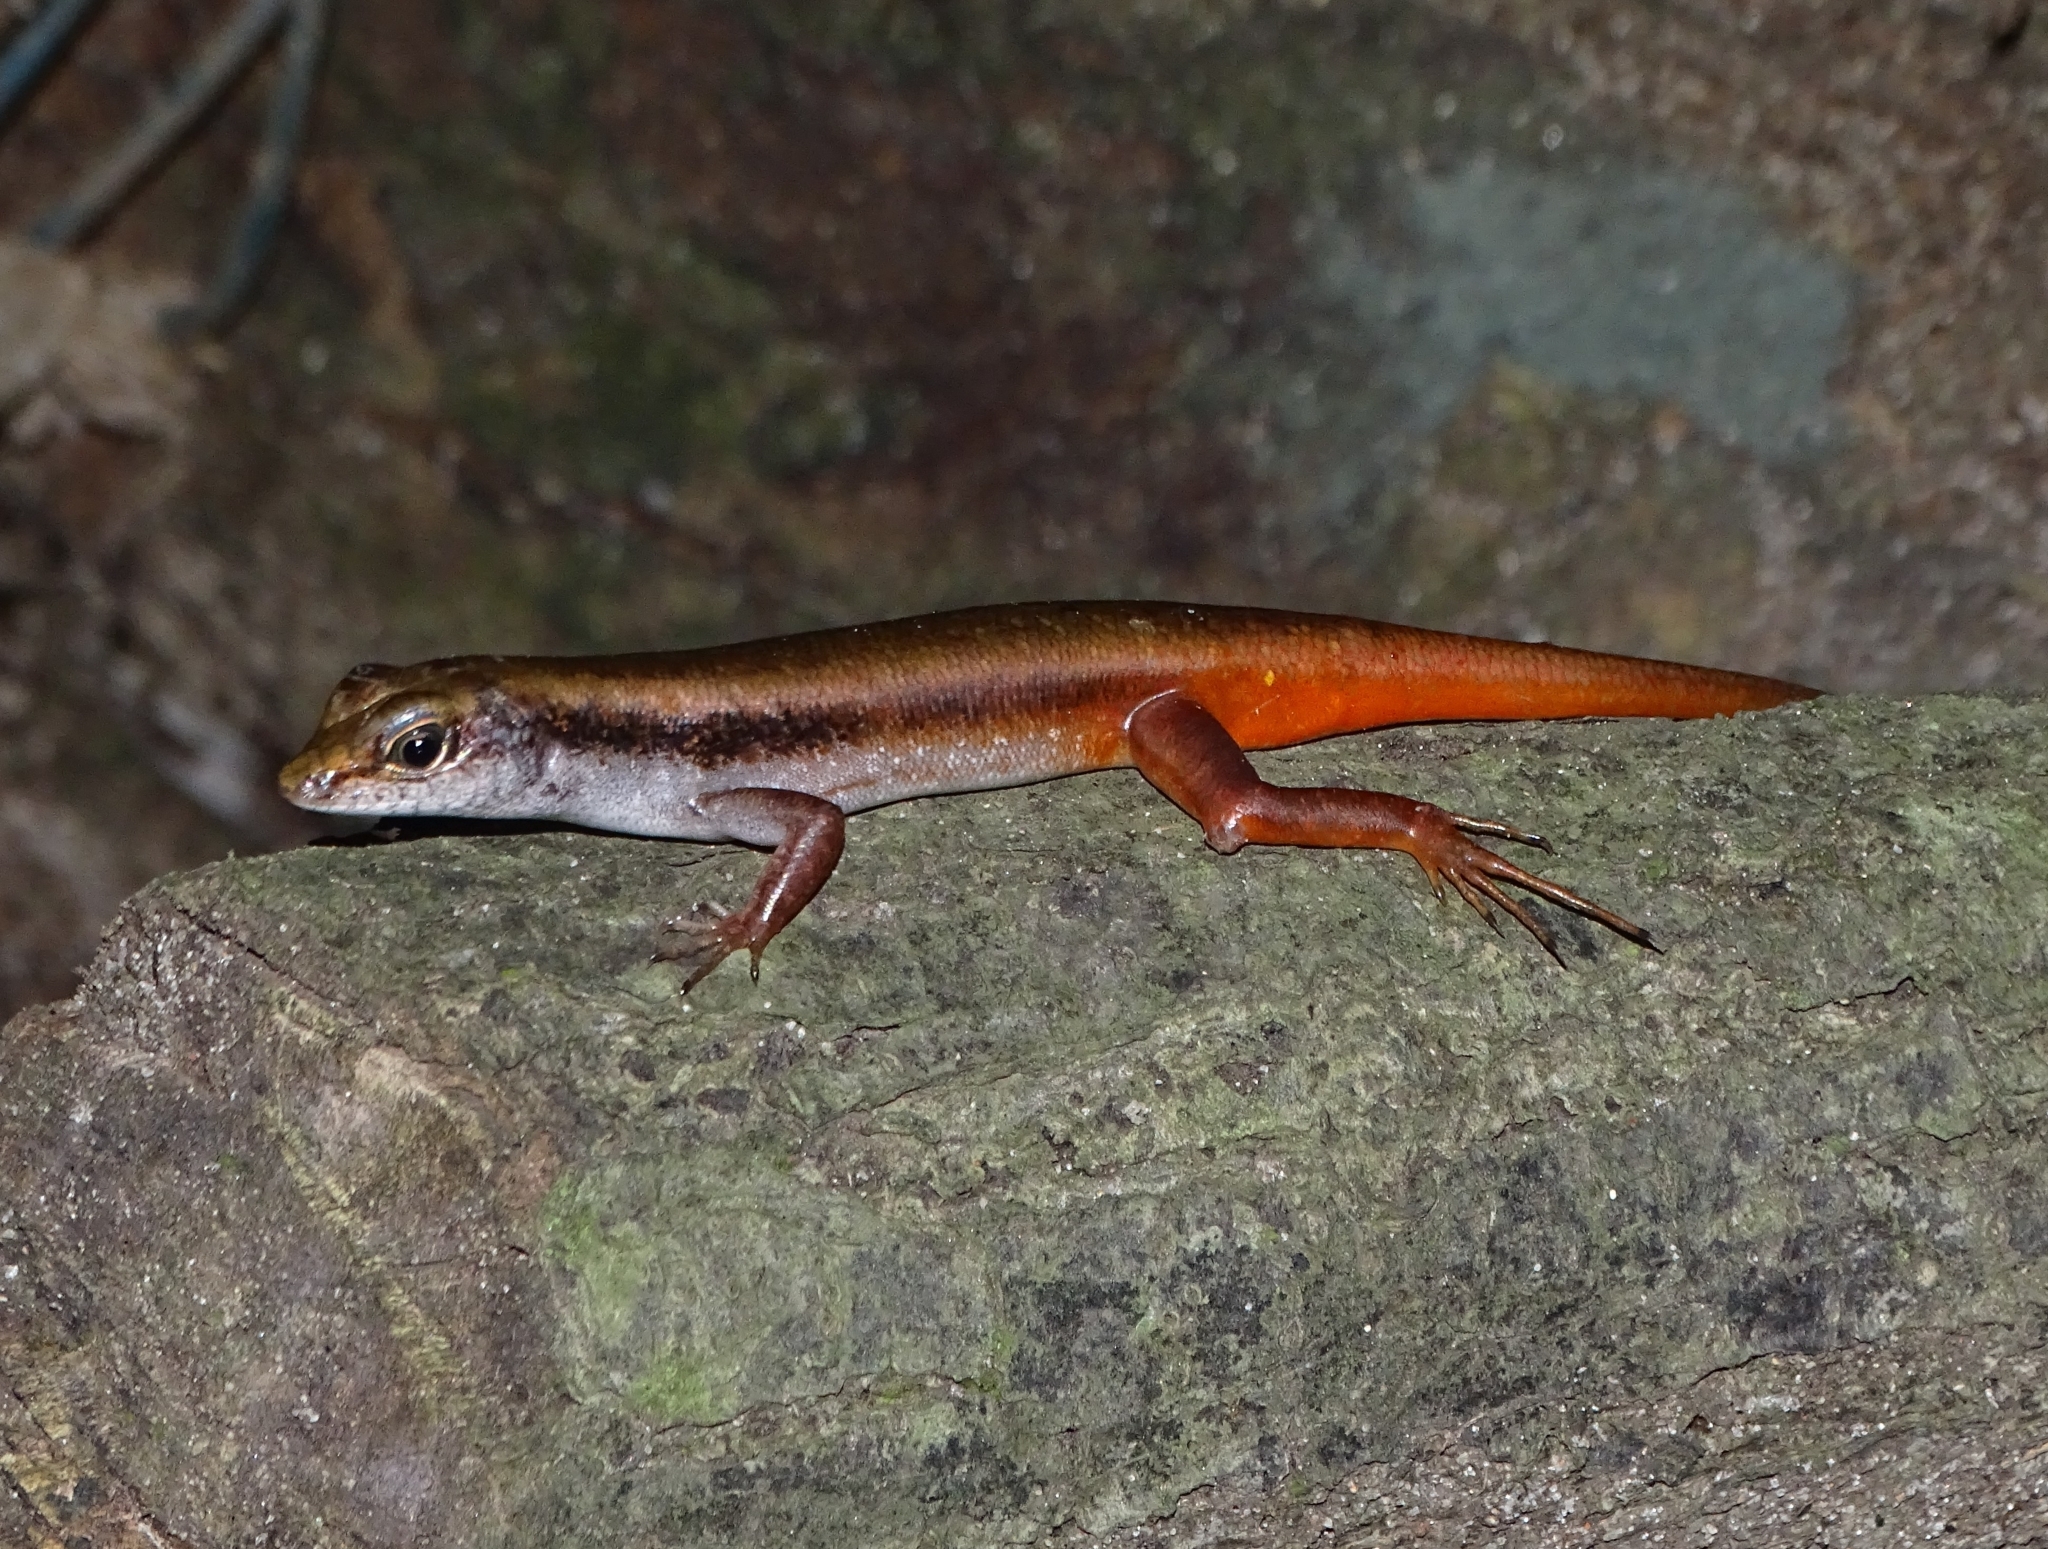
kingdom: Animalia
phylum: Chordata
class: Squamata
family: Scincidae
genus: Sphenomorphus
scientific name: Sphenomorphus dussumieri
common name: Dussumier's forest skink
